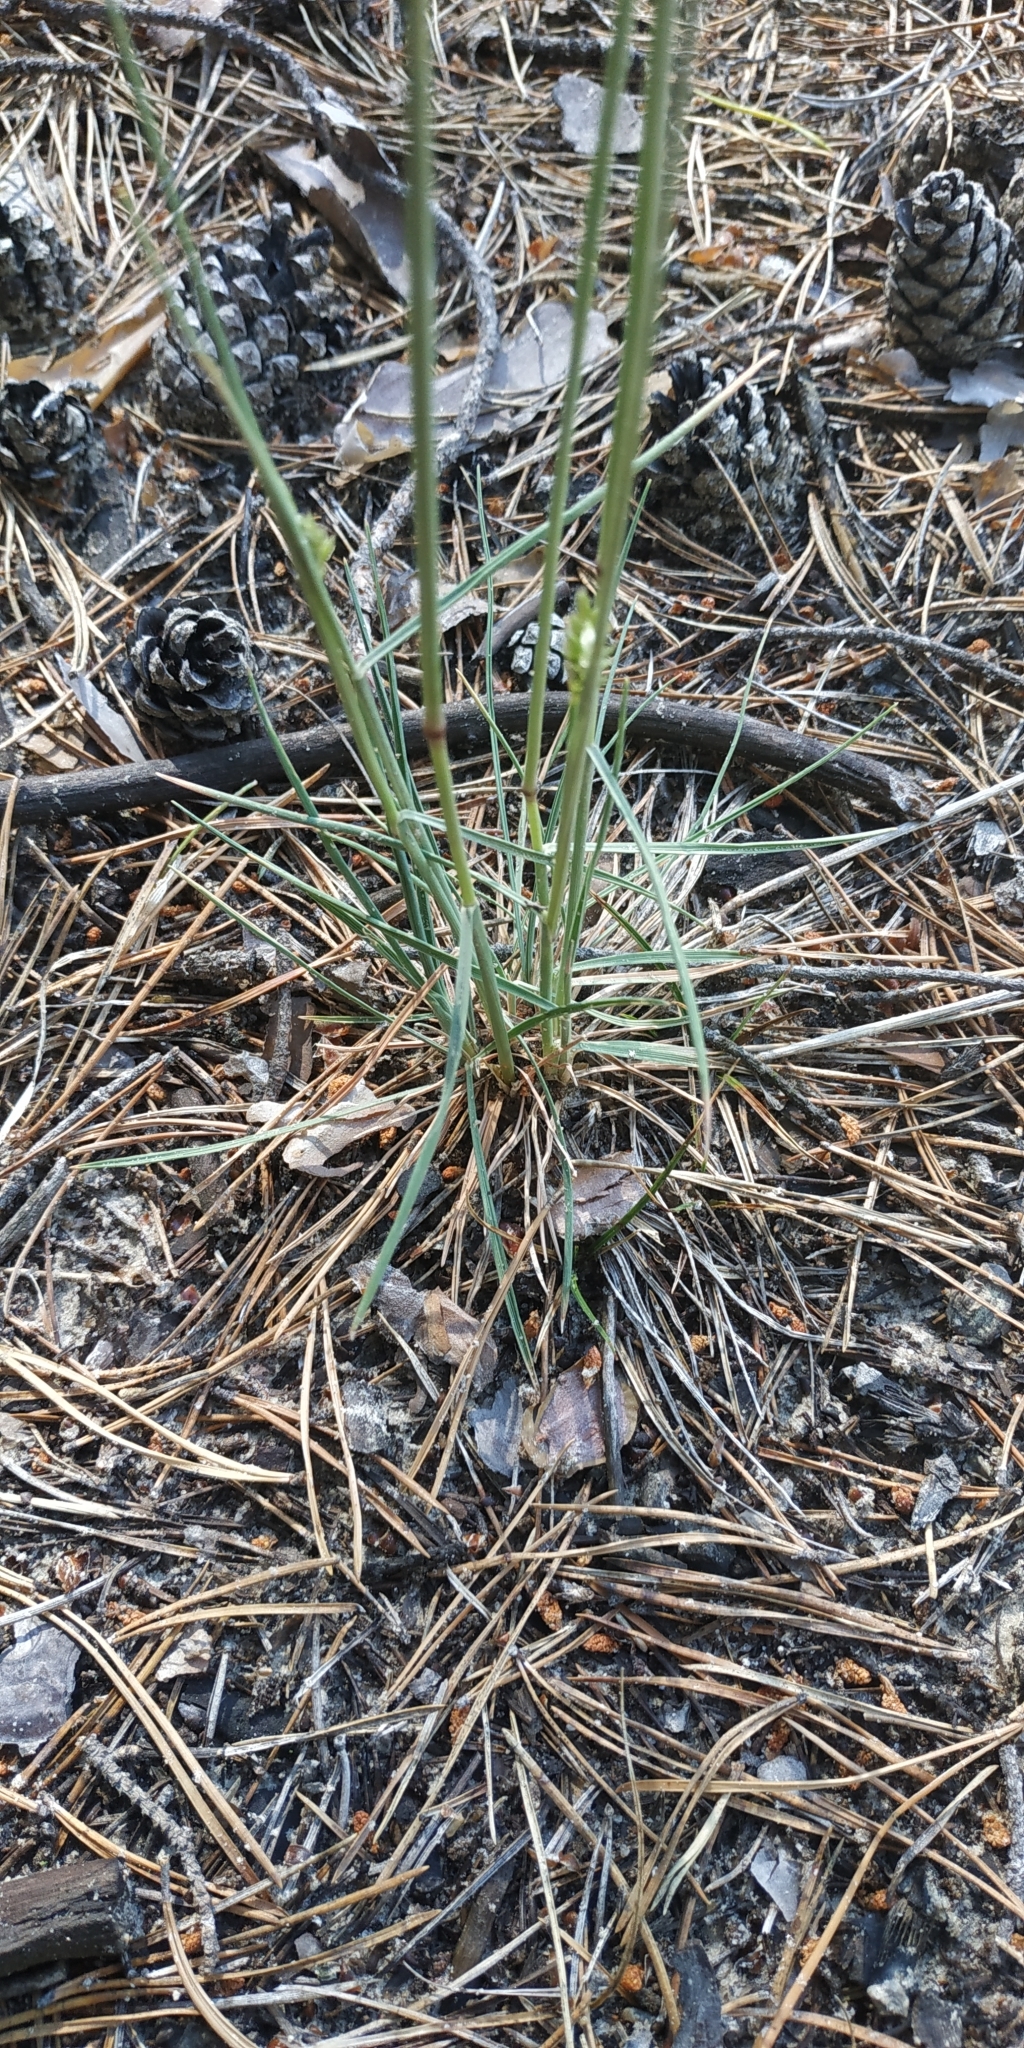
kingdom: Plantae
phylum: Tracheophyta
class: Liliopsida
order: Poales
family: Poaceae
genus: Koeleria
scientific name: Koeleria glauca
